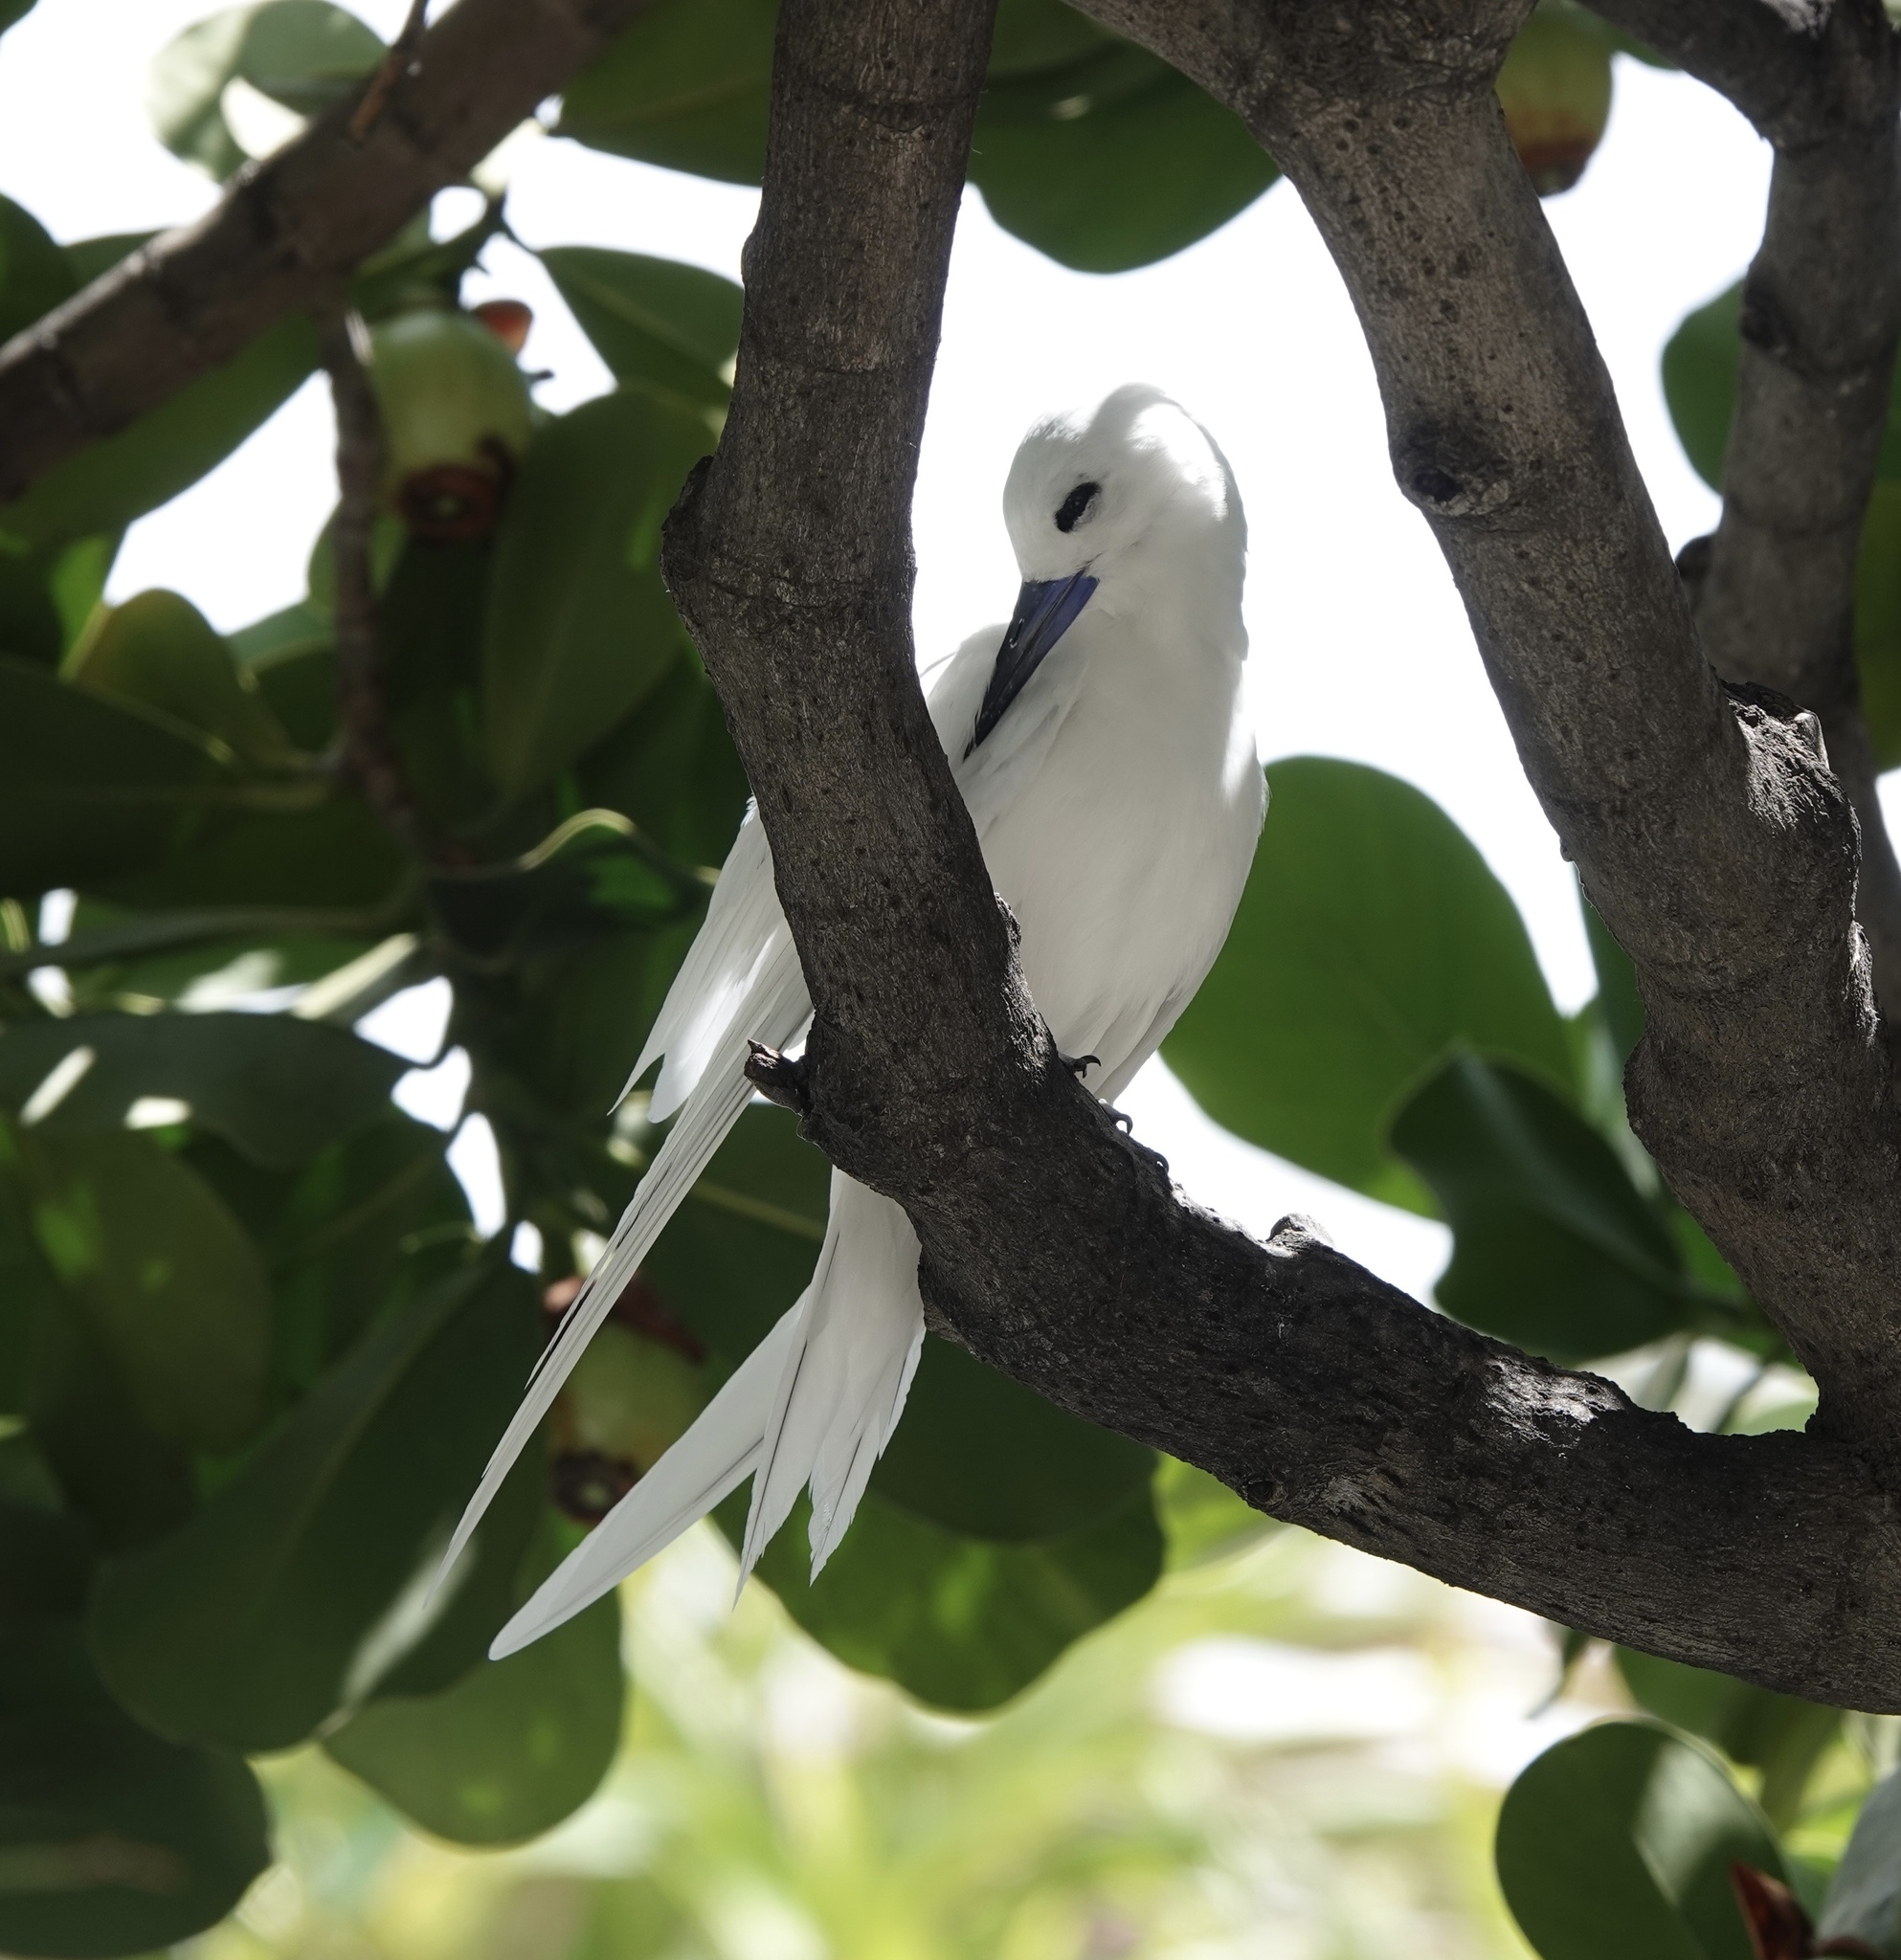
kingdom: Animalia
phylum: Chordata
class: Aves
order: Charadriiformes
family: Laridae
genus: Gygis
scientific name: Gygis alba
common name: White tern
